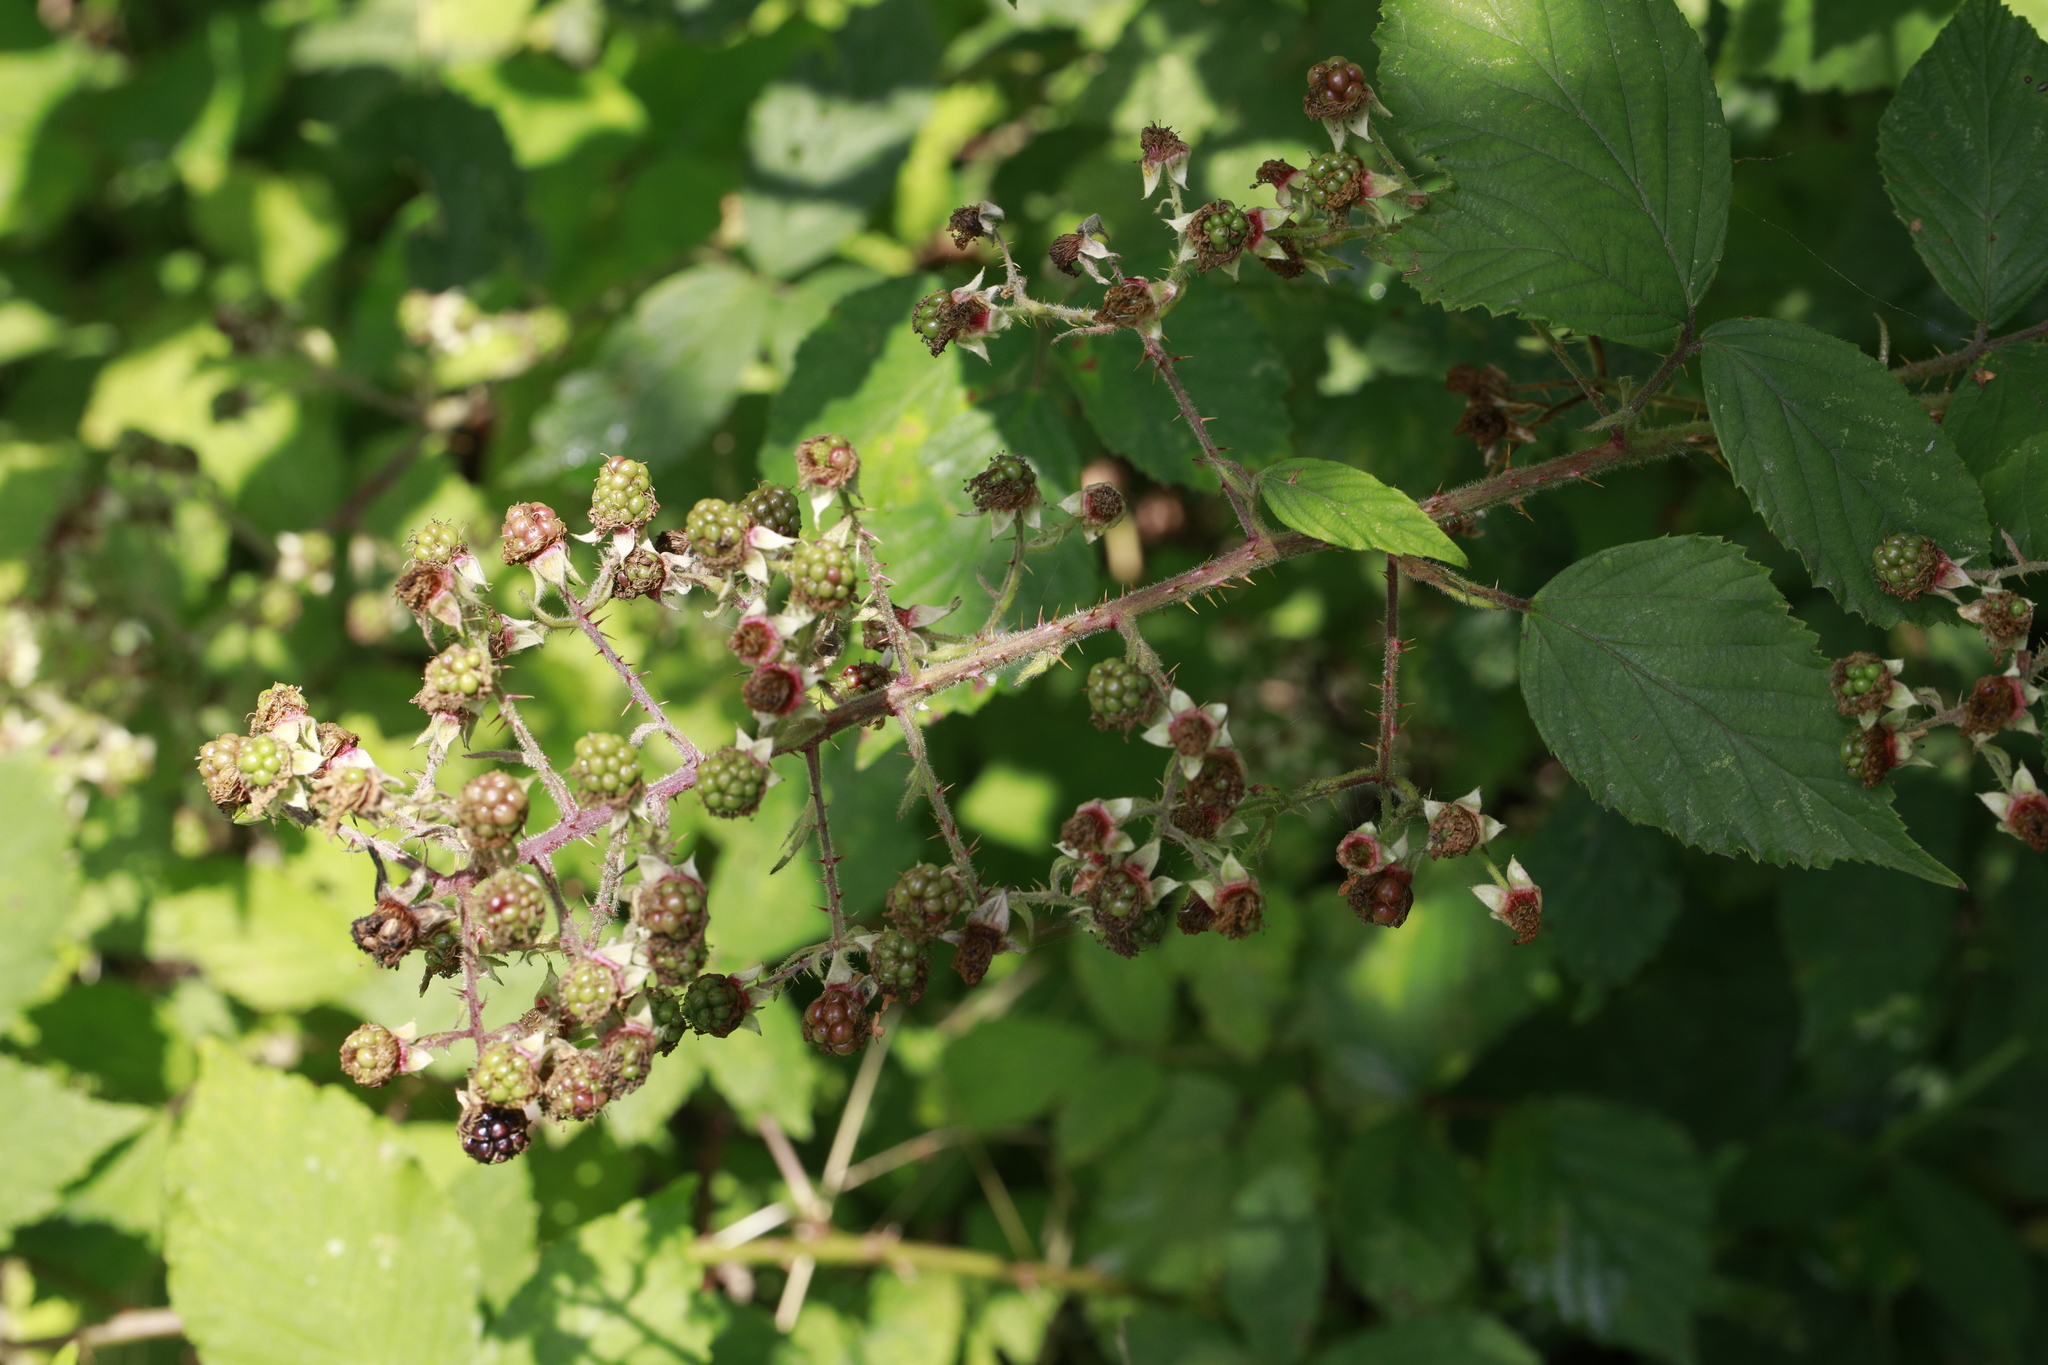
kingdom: Plantae
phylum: Tracheophyta
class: Magnoliopsida
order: Rosales
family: Rosaceae
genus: Rubus
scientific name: Rubus lindleyanus
